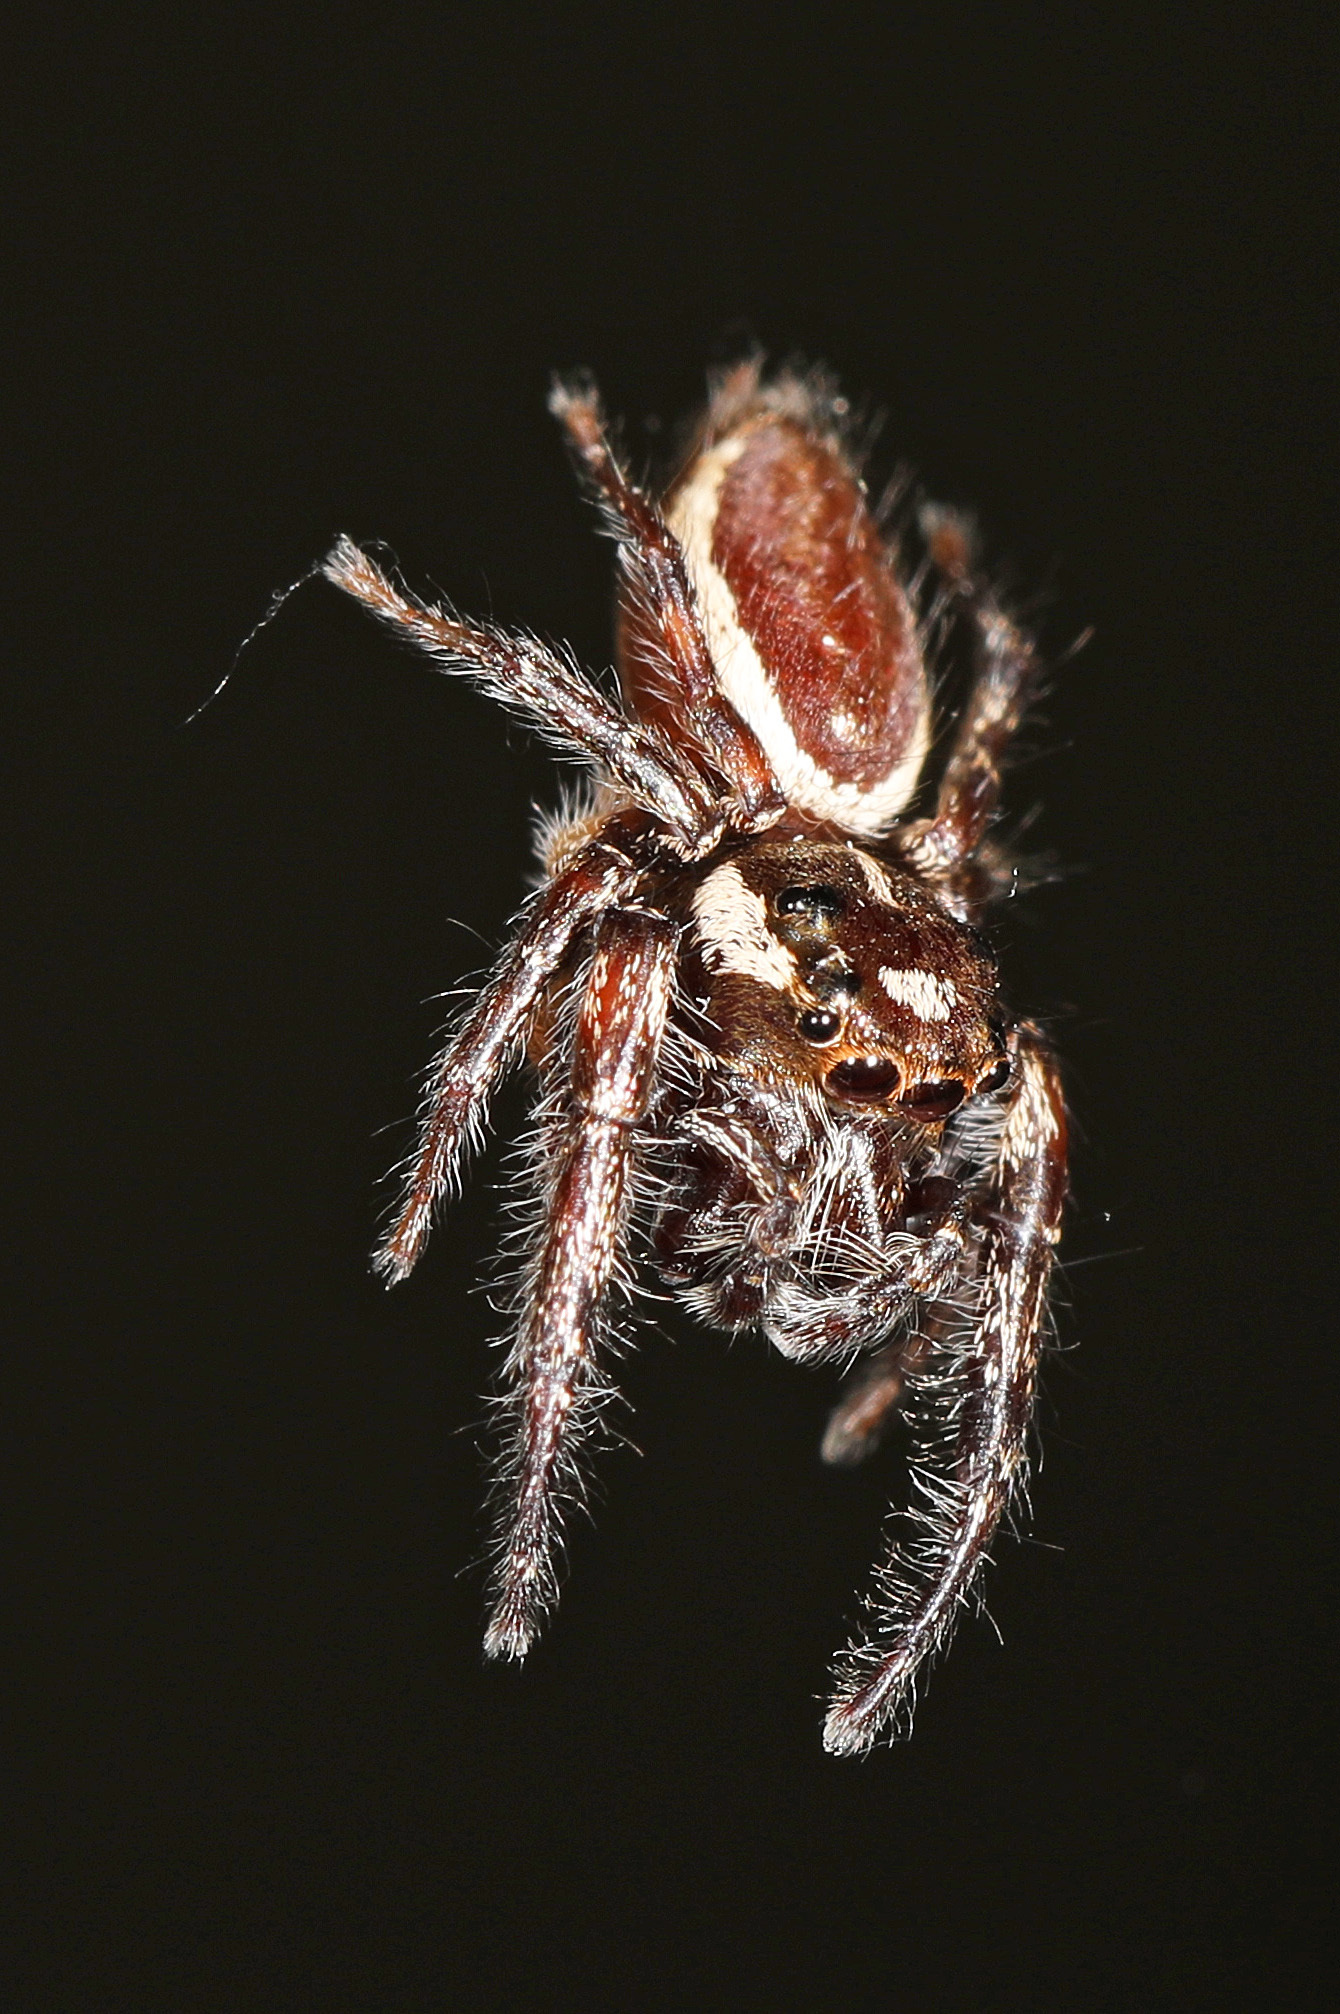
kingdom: Animalia
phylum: Arthropoda
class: Arachnida
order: Araneae
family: Salticidae
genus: Eris
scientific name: Eris militaris
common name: Bronze jumper
